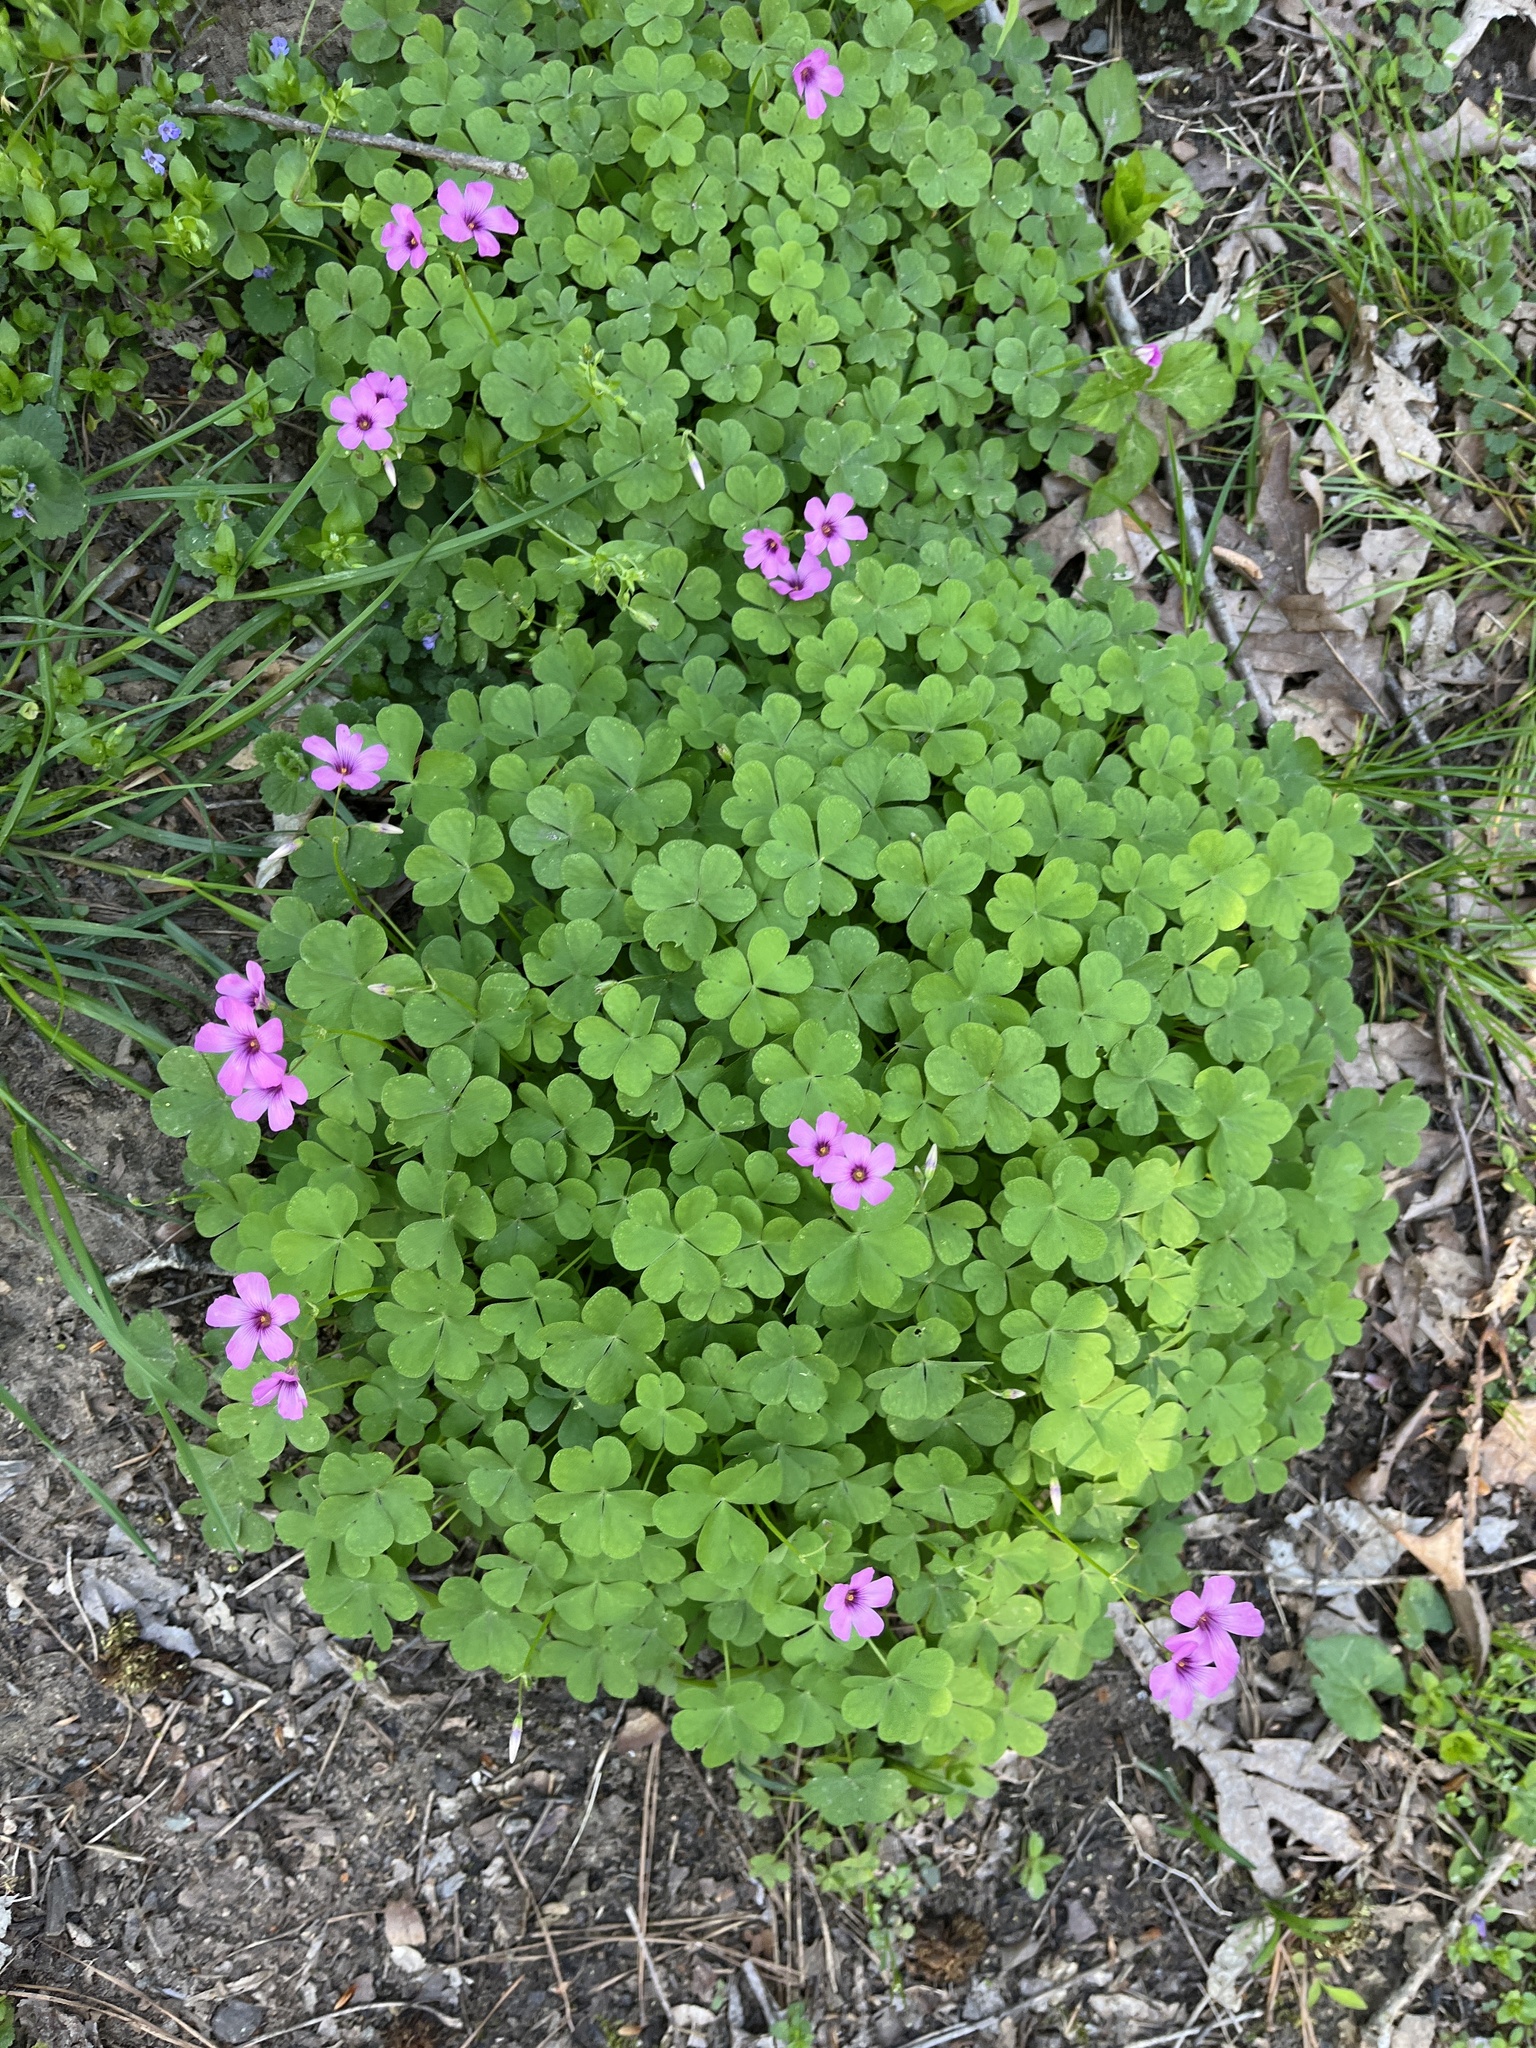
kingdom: Plantae
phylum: Tracheophyta
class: Magnoliopsida
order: Oxalidales
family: Oxalidaceae
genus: Oxalis
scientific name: Oxalis articulata
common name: Pink-sorrel
